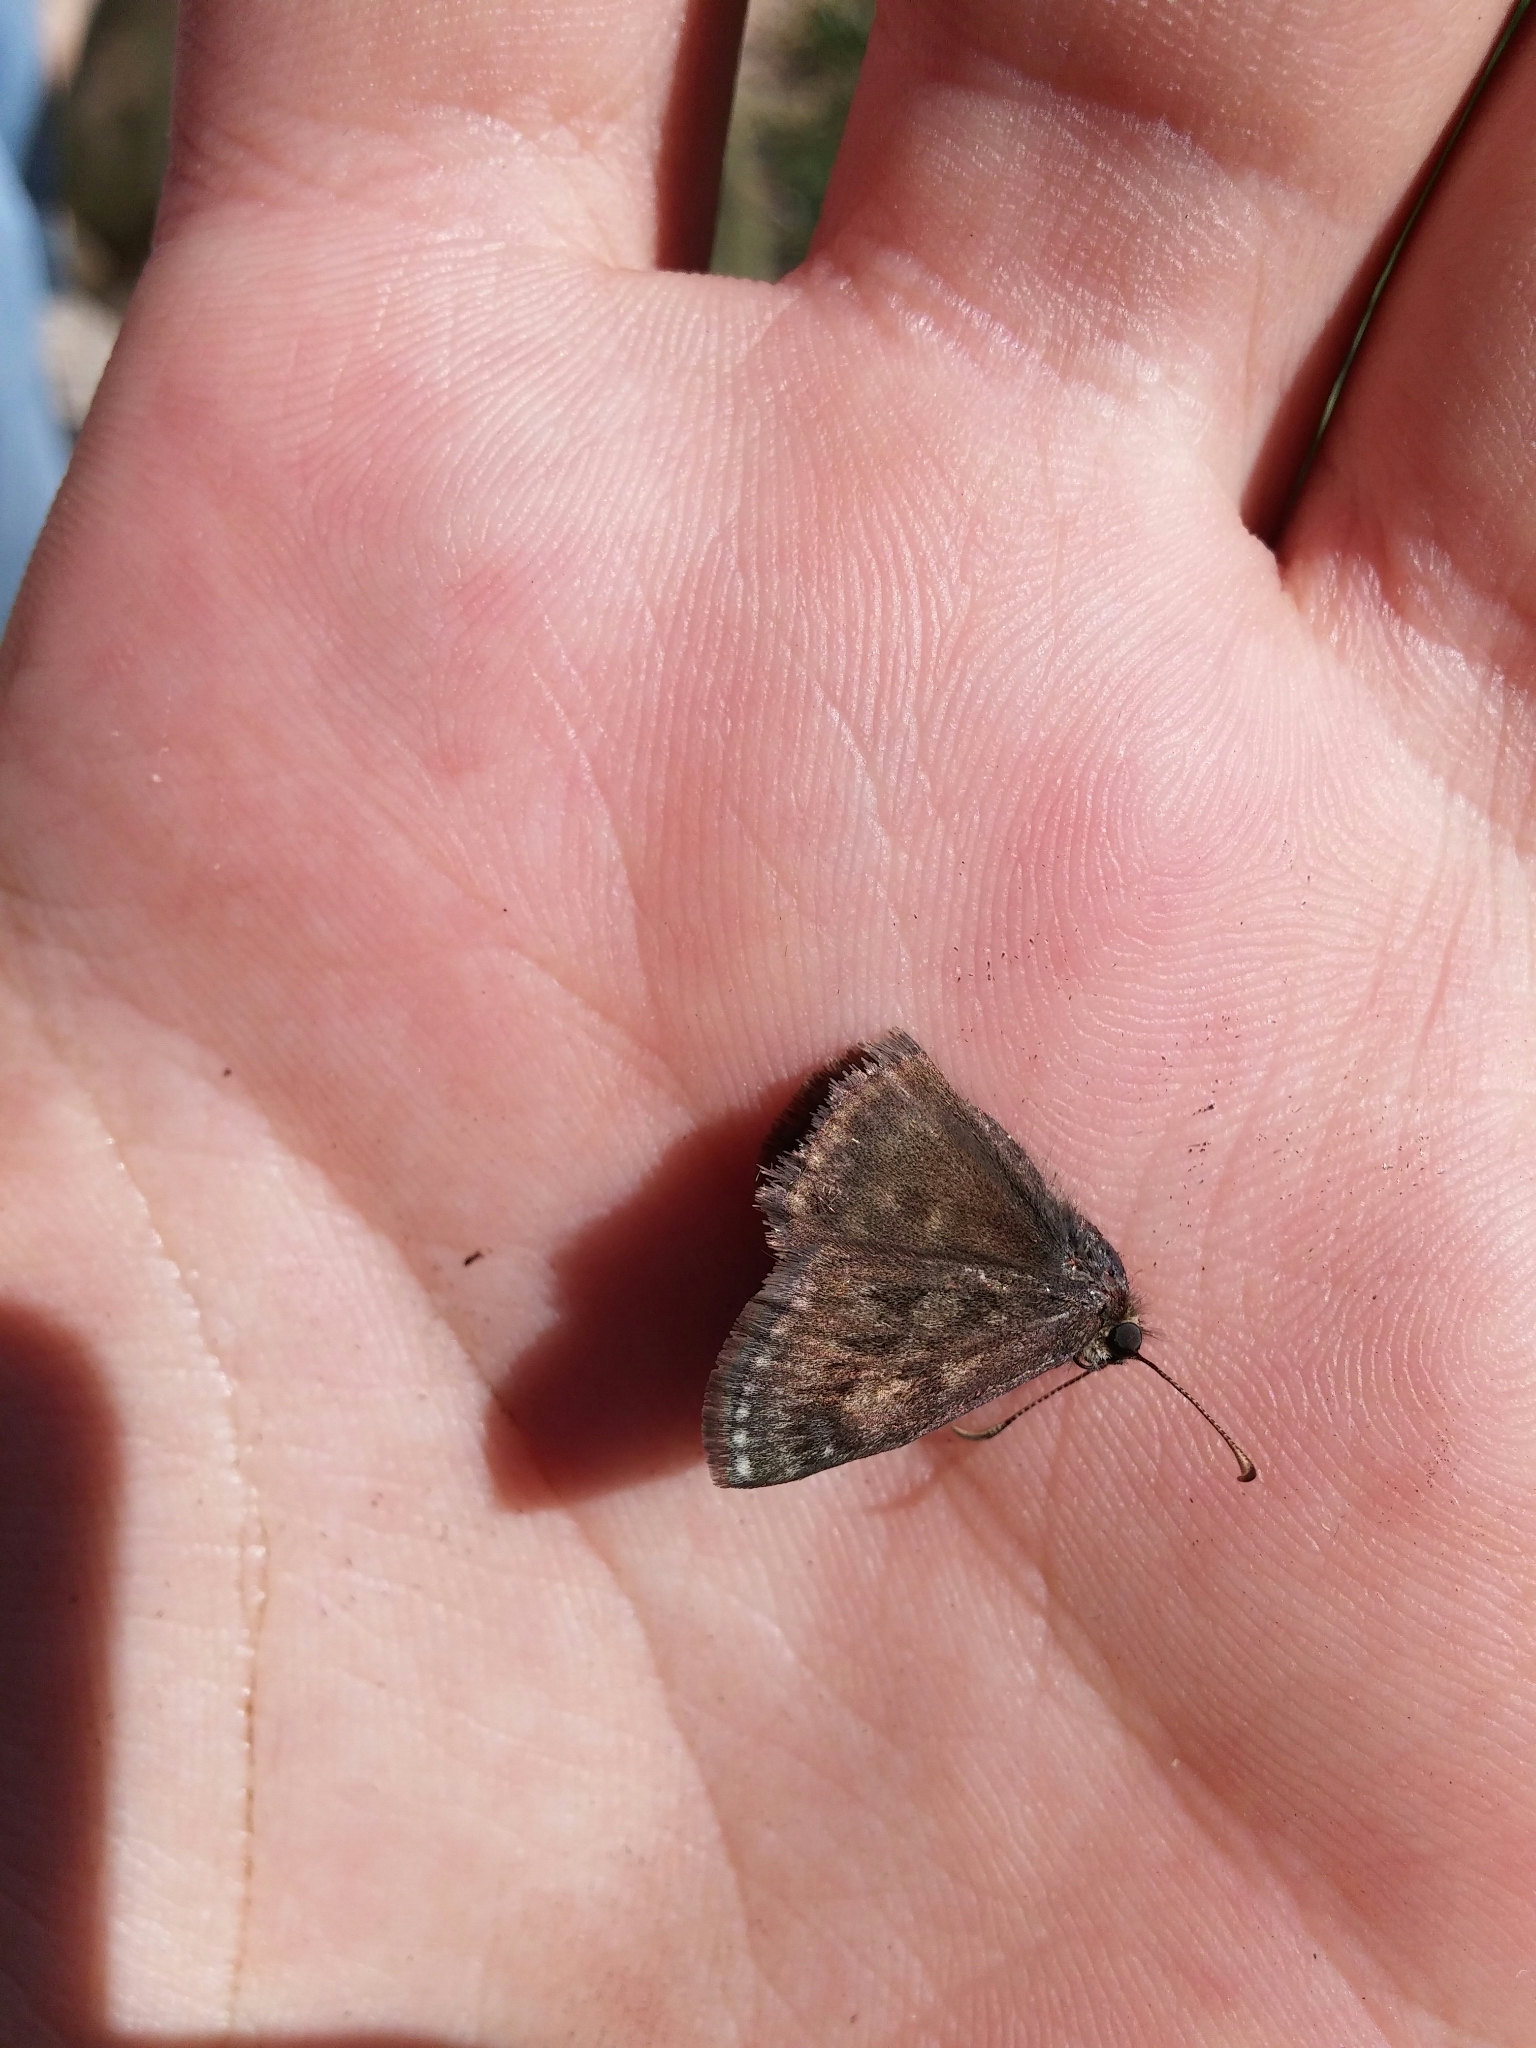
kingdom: Animalia
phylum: Arthropoda
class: Insecta
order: Lepidoptera
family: Hesperiidae
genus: Erynnis
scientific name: Erynnis tages
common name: Dingy skipper
